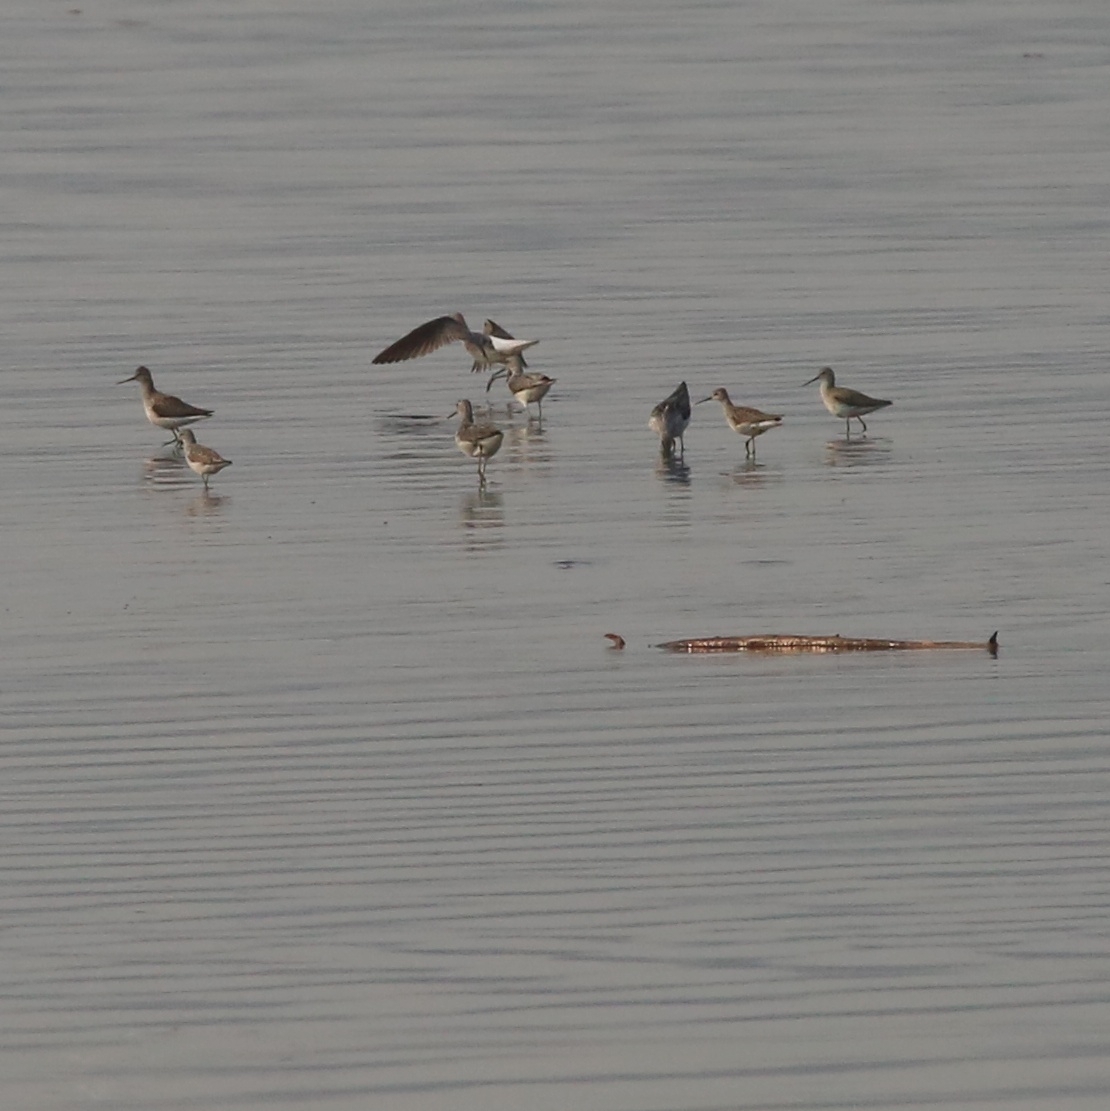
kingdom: Animalia
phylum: Chordata
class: Aves
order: Charadriiformes
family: Scolopacidae
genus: Tringa
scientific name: Tringa nebularia
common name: Common greenshank
